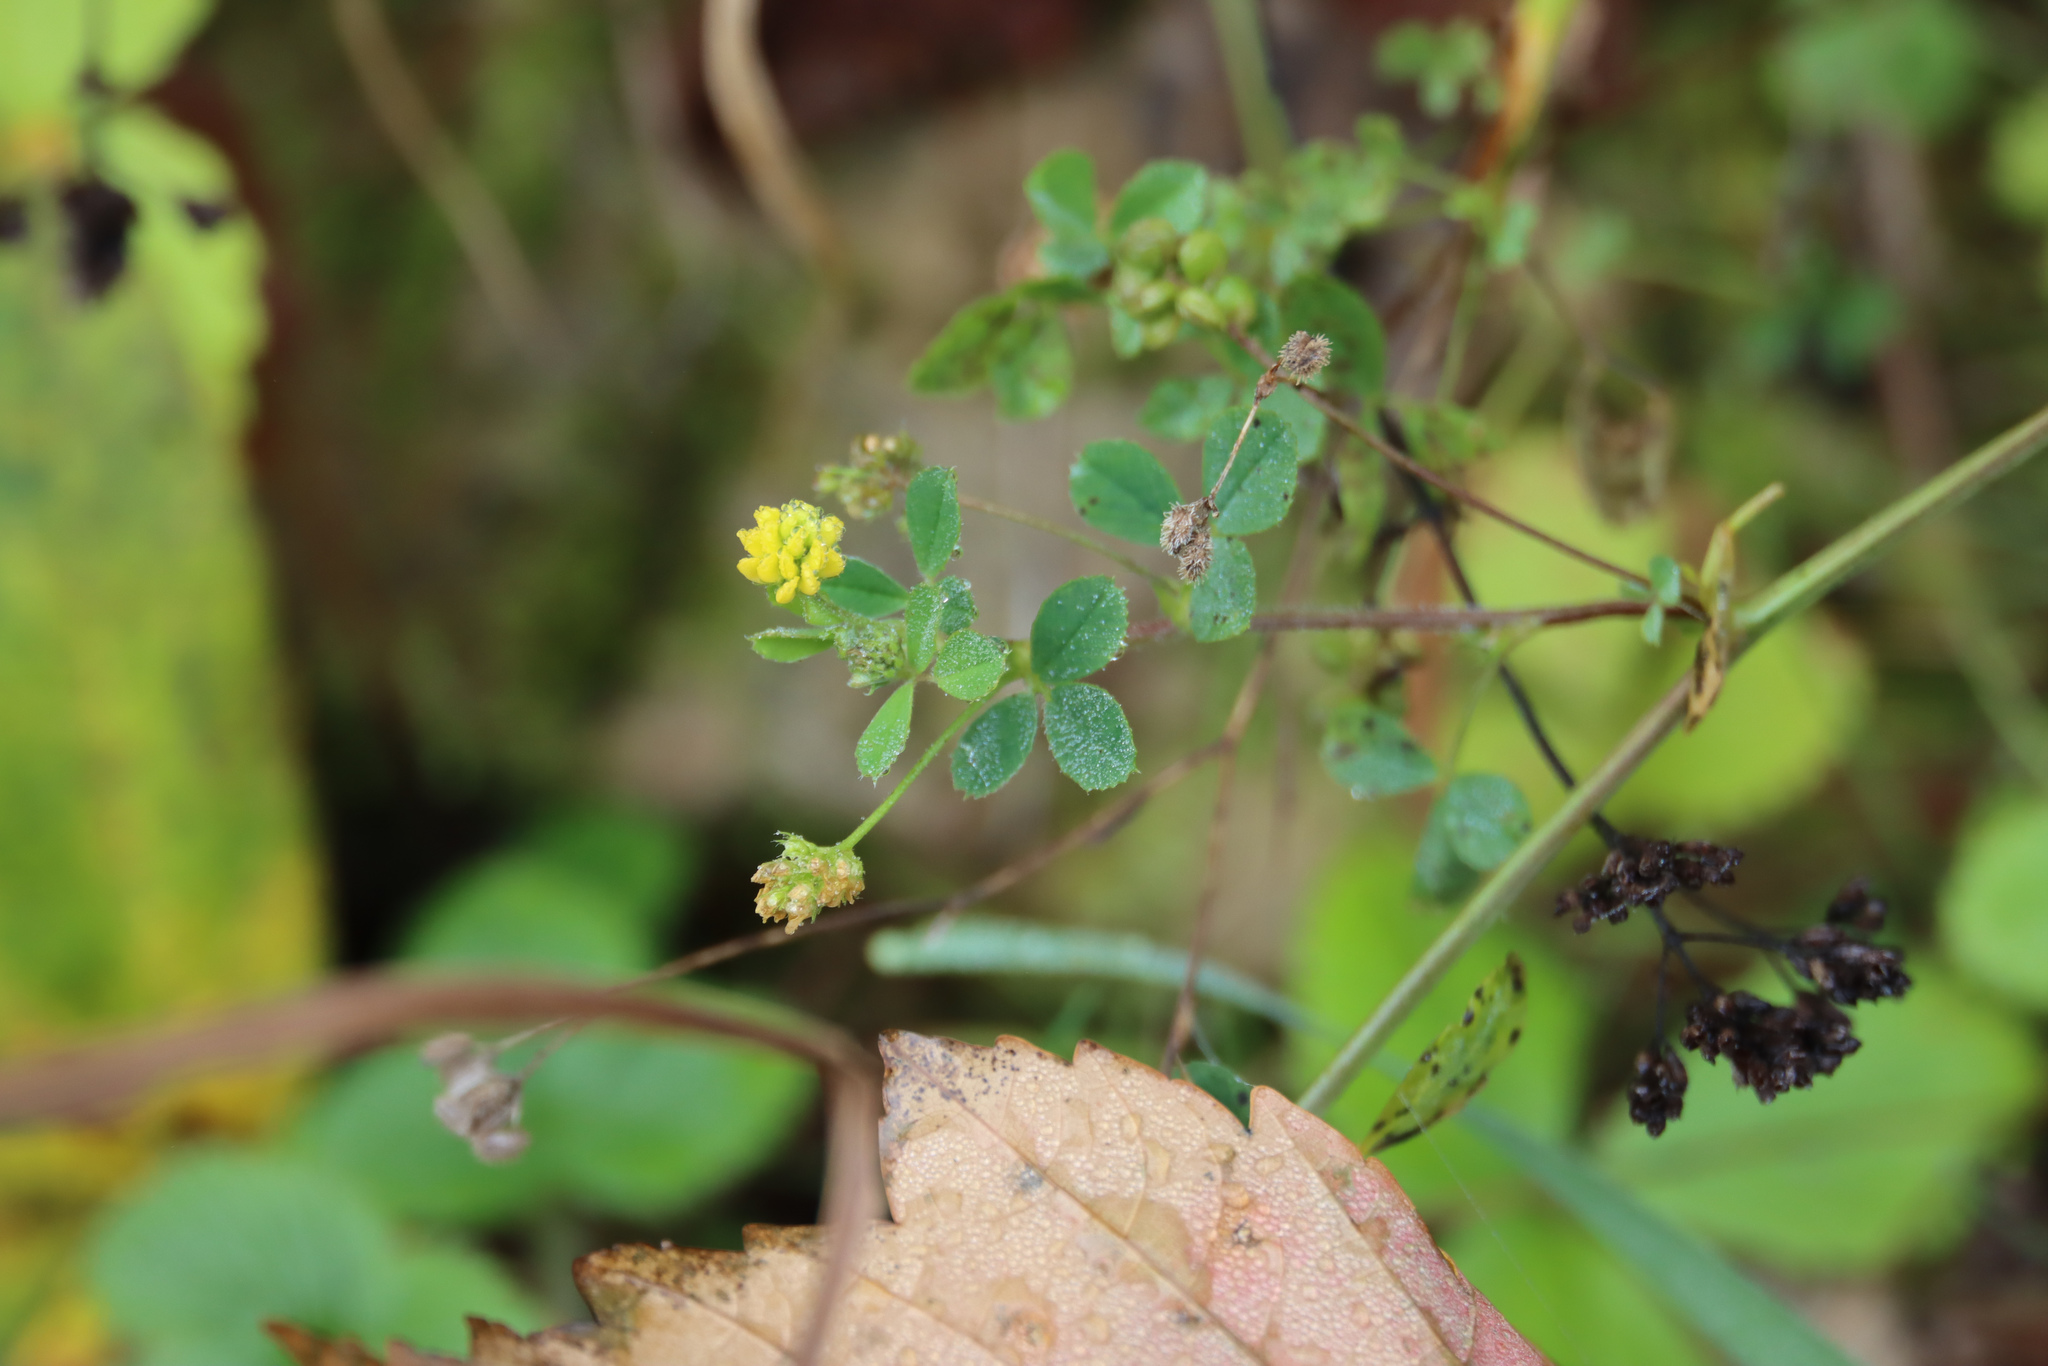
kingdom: Plantae
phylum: Tracheophyta
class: Magnoliopsida
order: Fabales
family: Fabaceae
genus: Medicago
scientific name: Medicago lupulina
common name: Black medick
